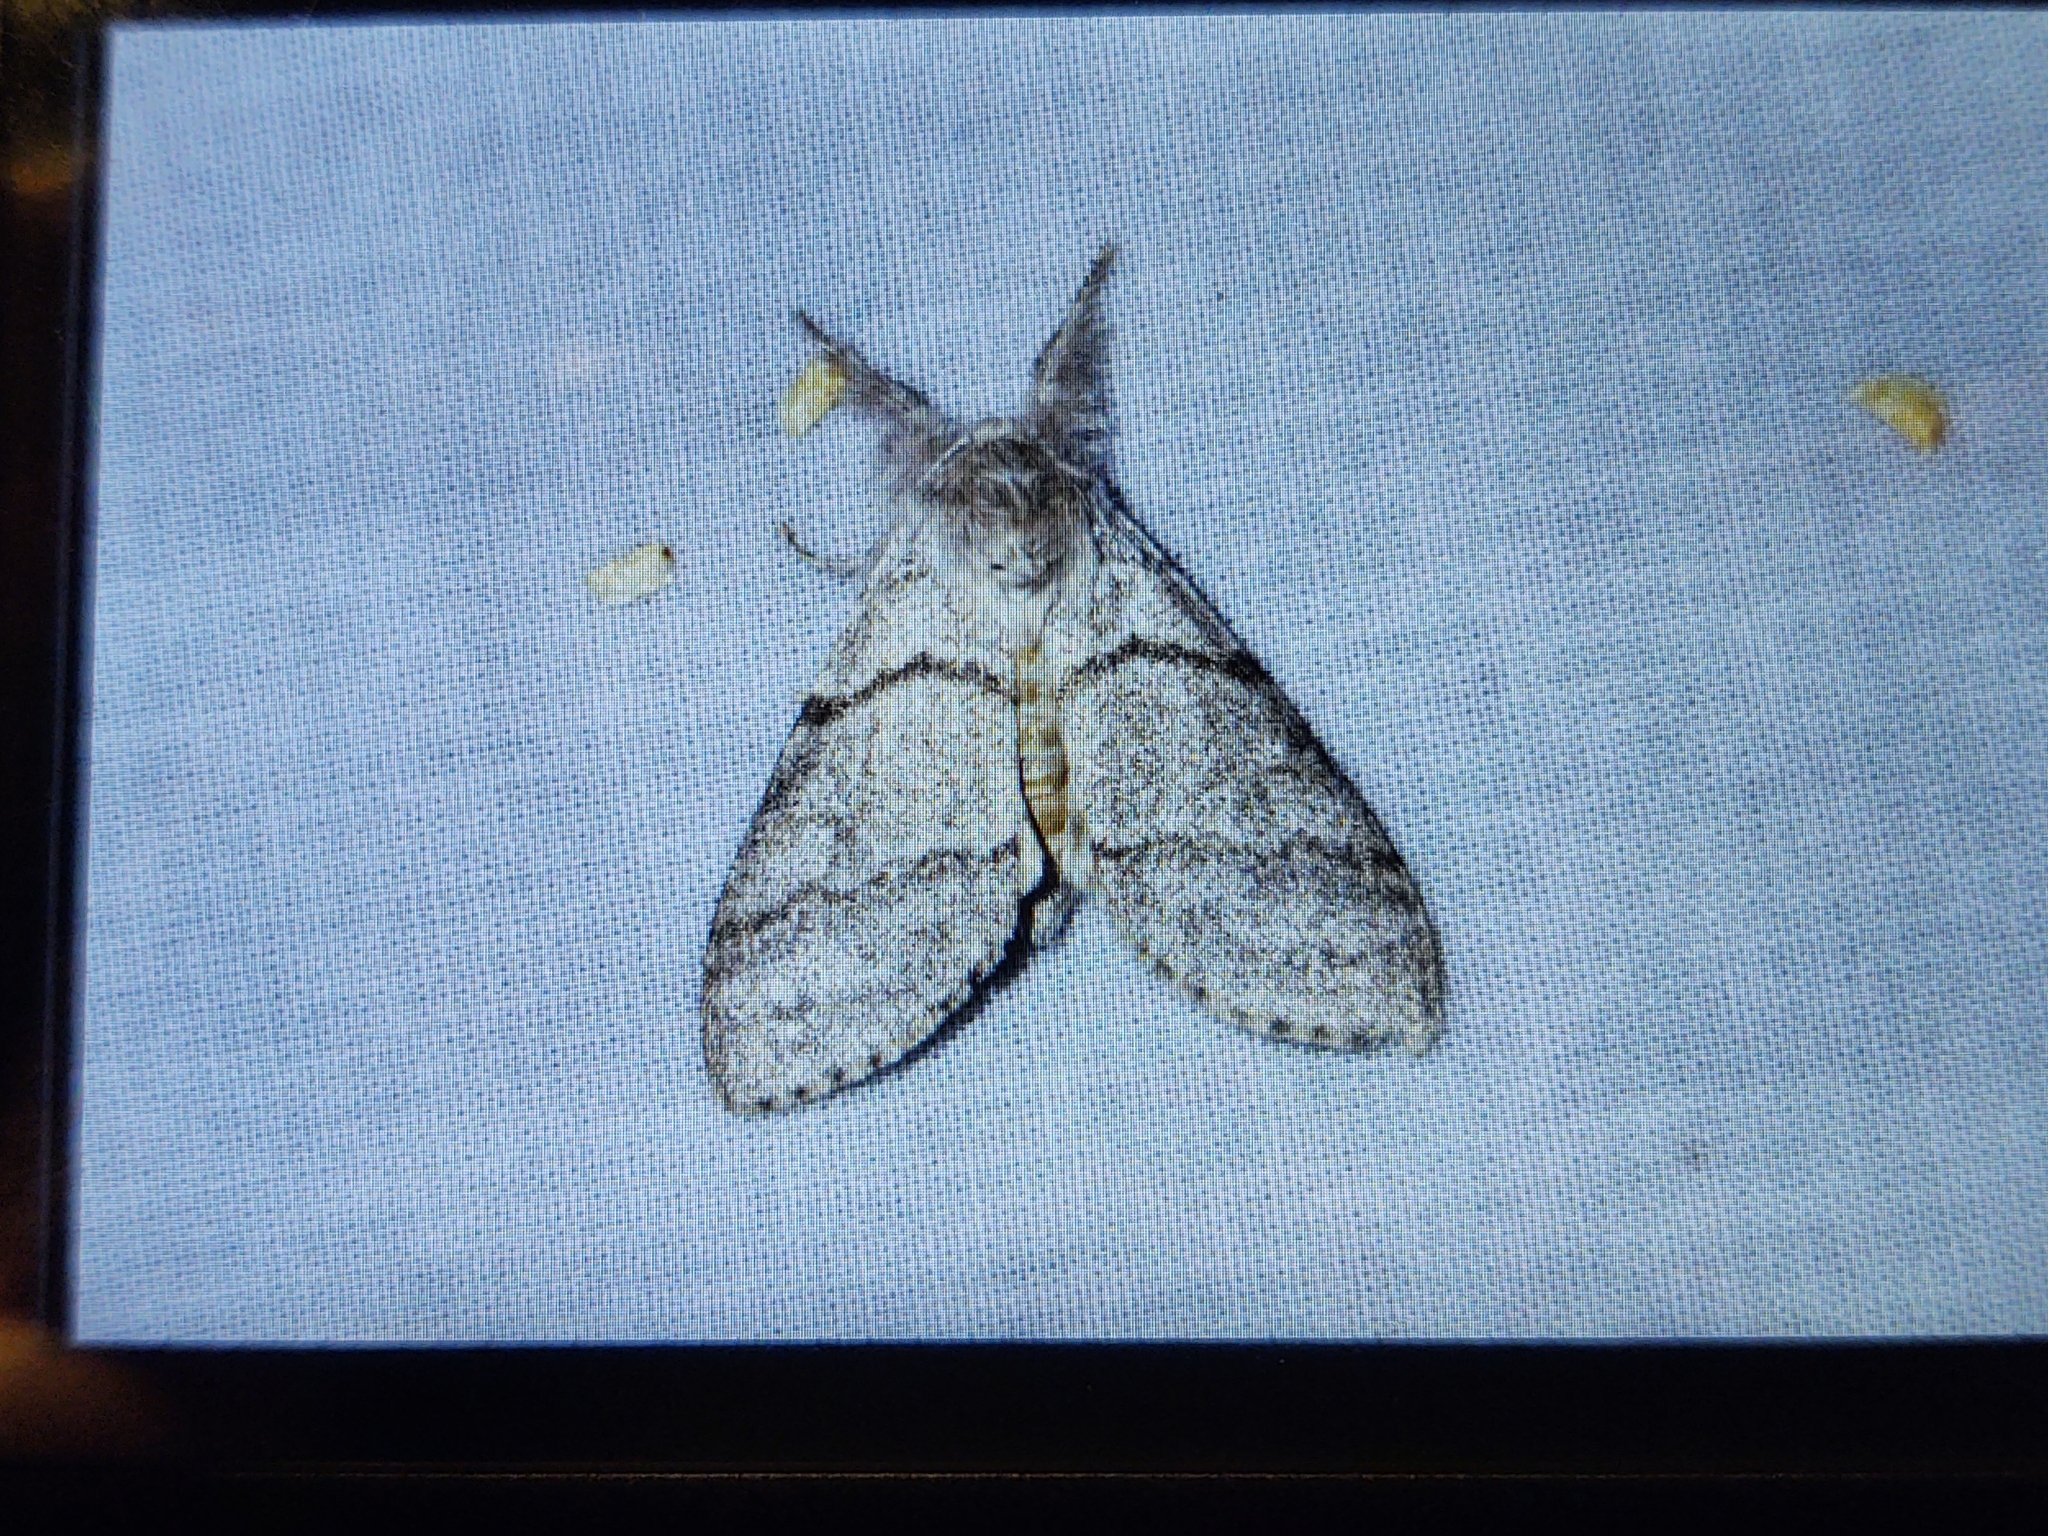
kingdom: Animalia
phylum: Arthropoda
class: Insecta
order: Lepidoptera
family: Erebidae
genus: Calliteara
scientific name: Calliteara pudibunda
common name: Pale tussock
